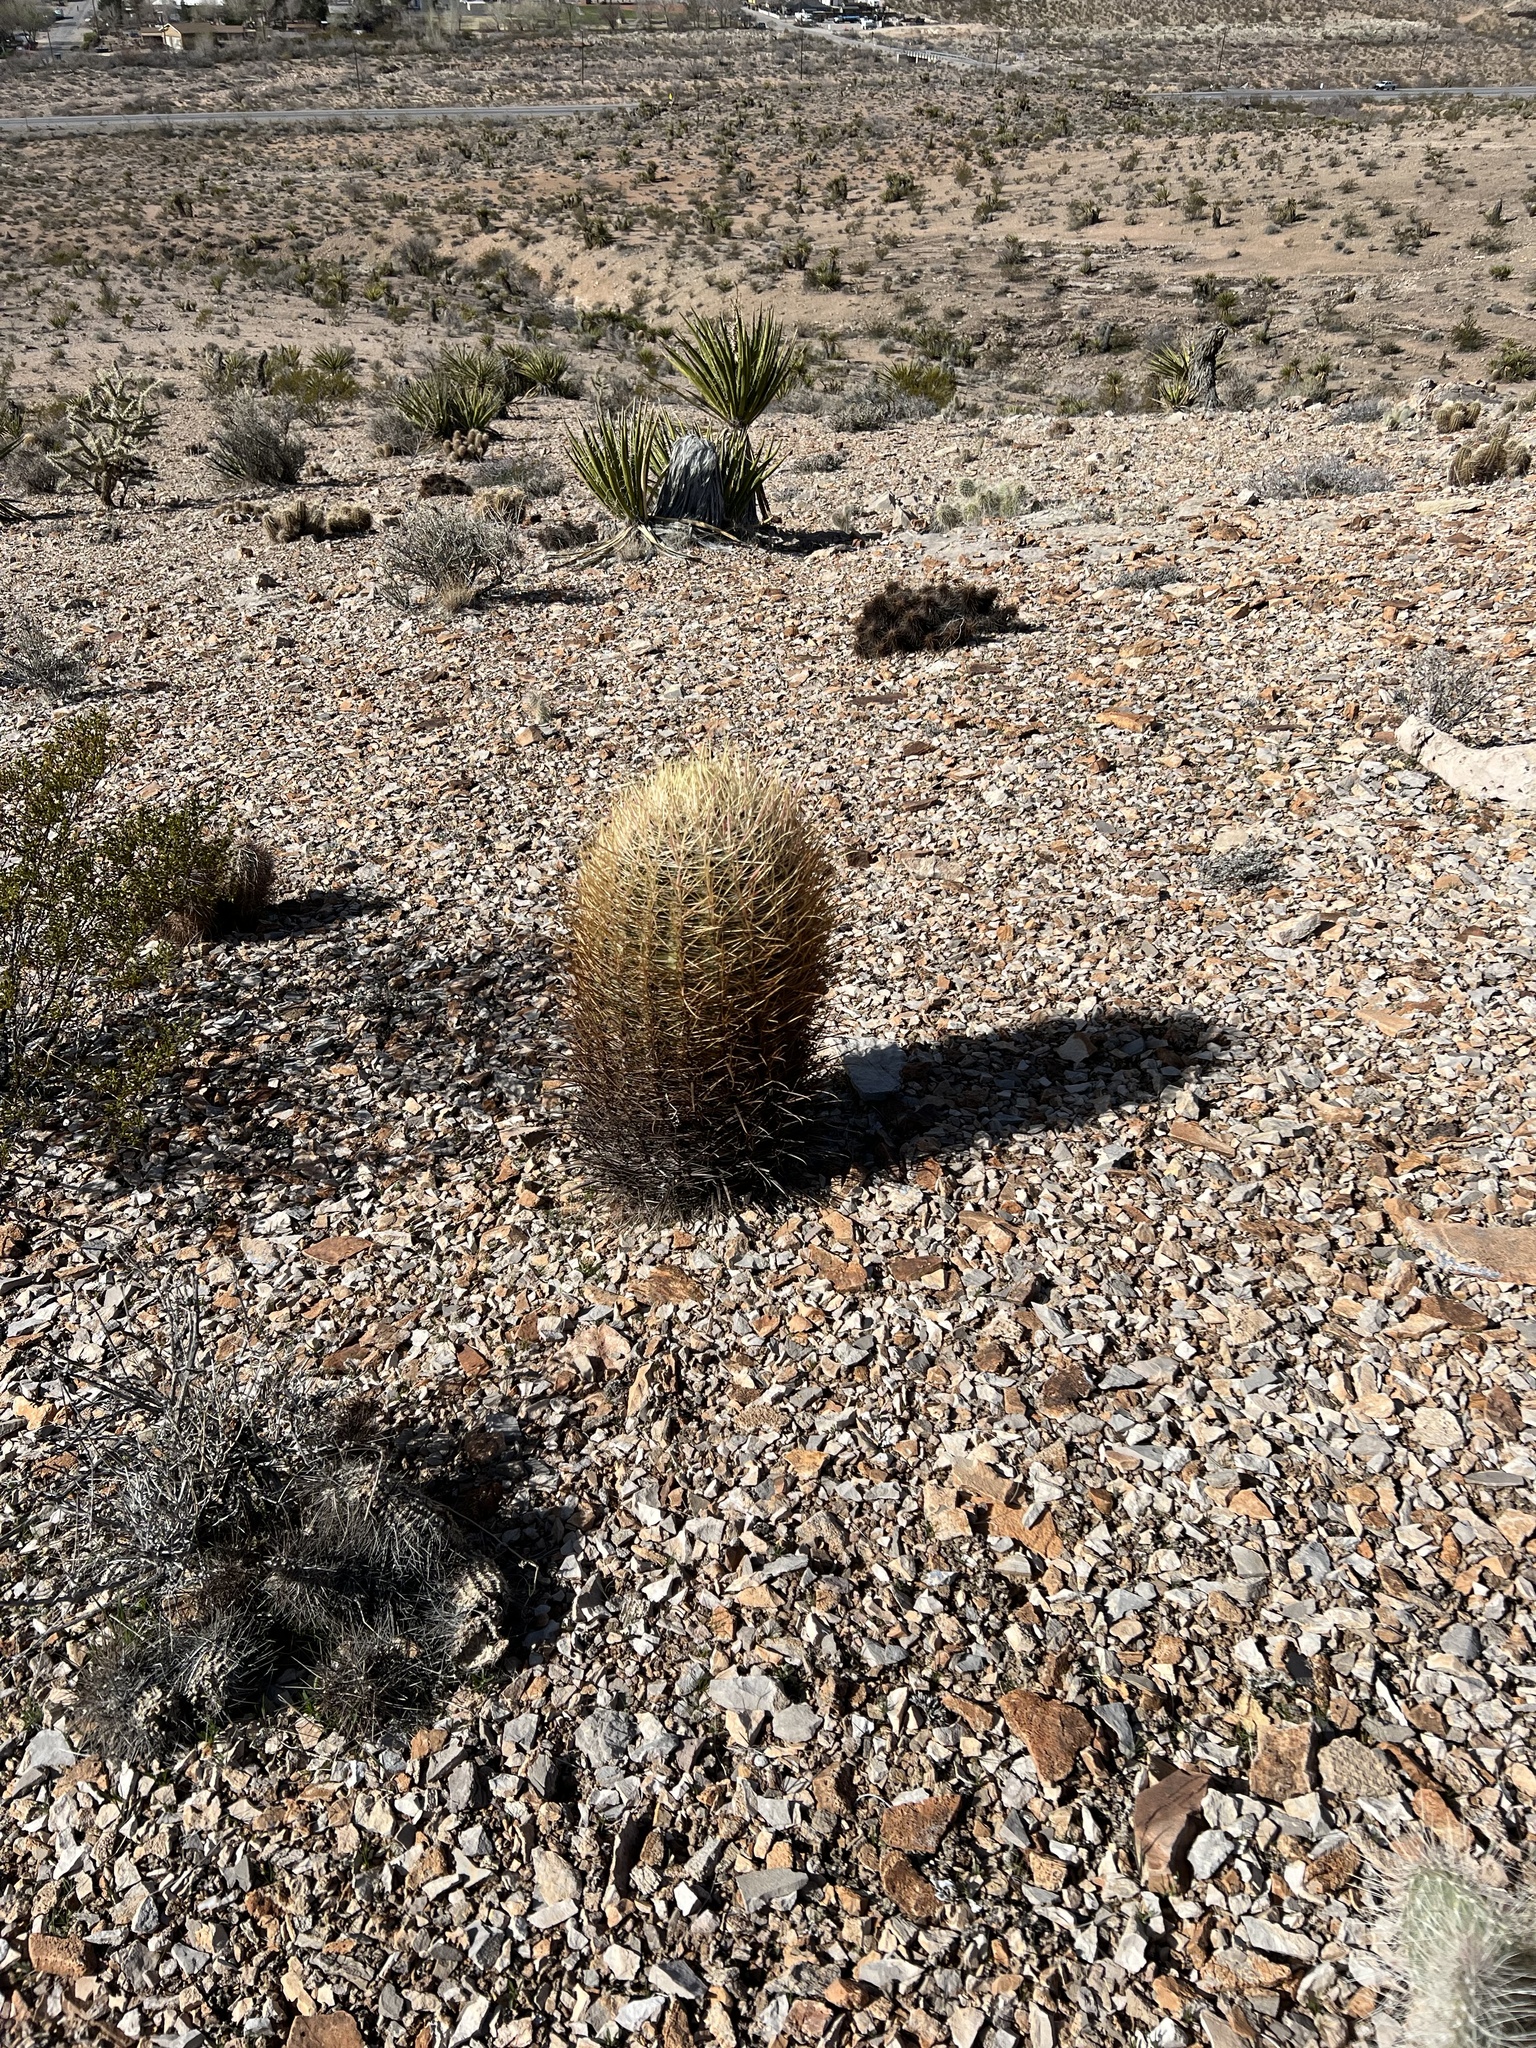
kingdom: Plantae
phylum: Tracheophyta
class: Magnoliopsida
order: Caryophyllales
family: Cactaceae
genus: Ferocactus
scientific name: Ferocactus cylindraceus
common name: California barrel cactus
